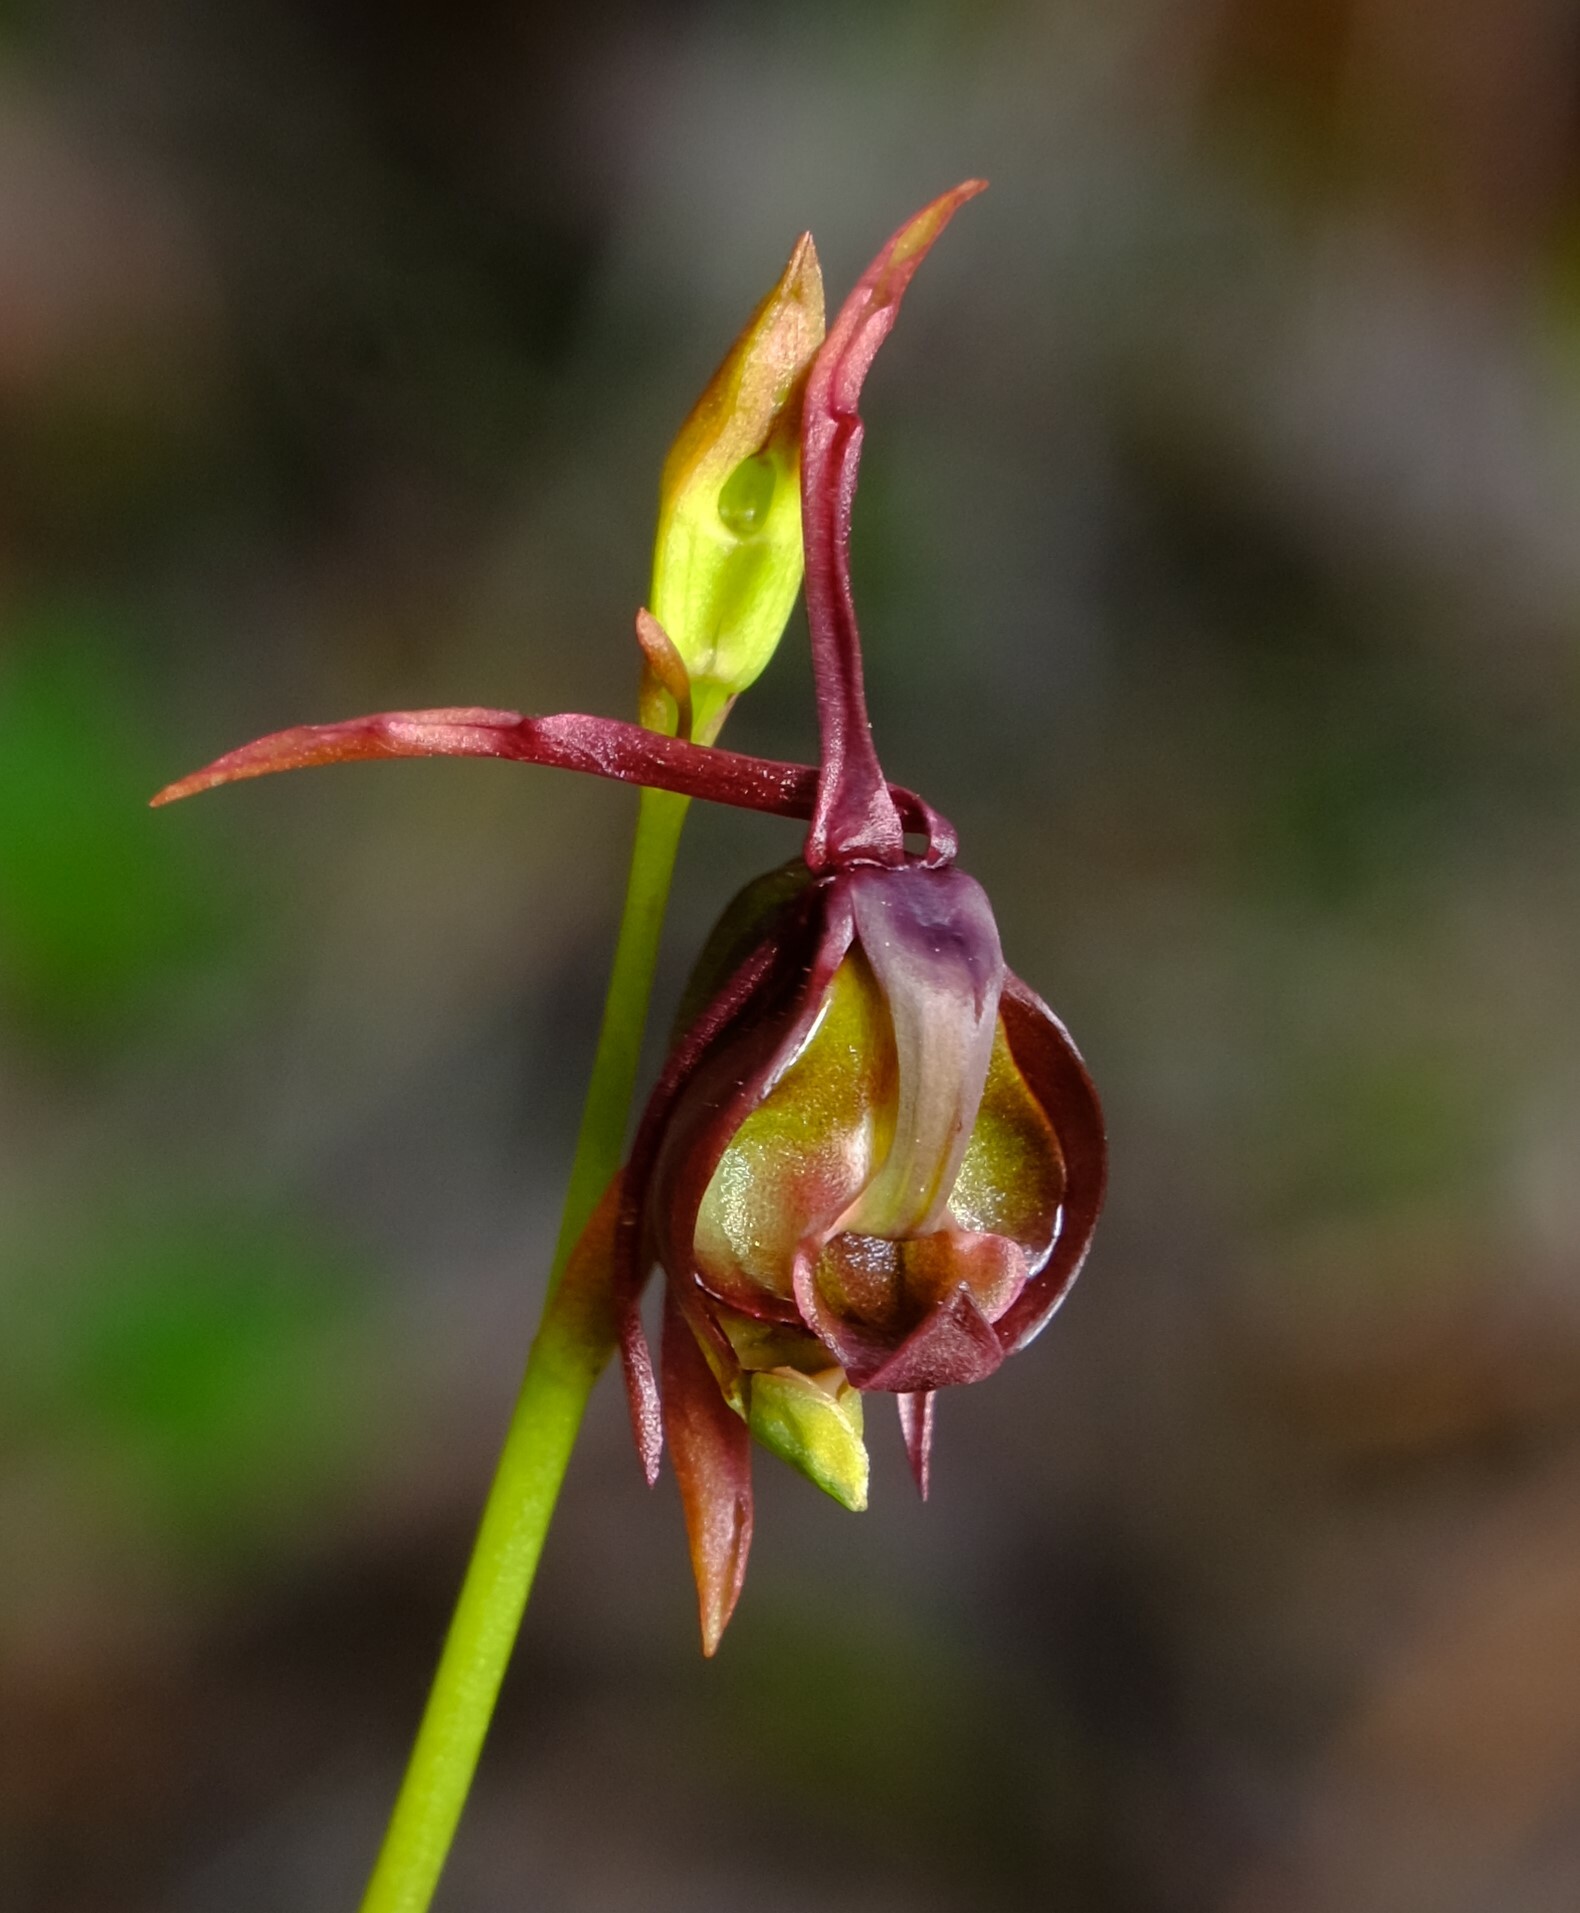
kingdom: Plantae
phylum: Tracheophyta
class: Liliopsida
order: Asparagales
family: Orchidaceae
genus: Caleana
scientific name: Caleana major
